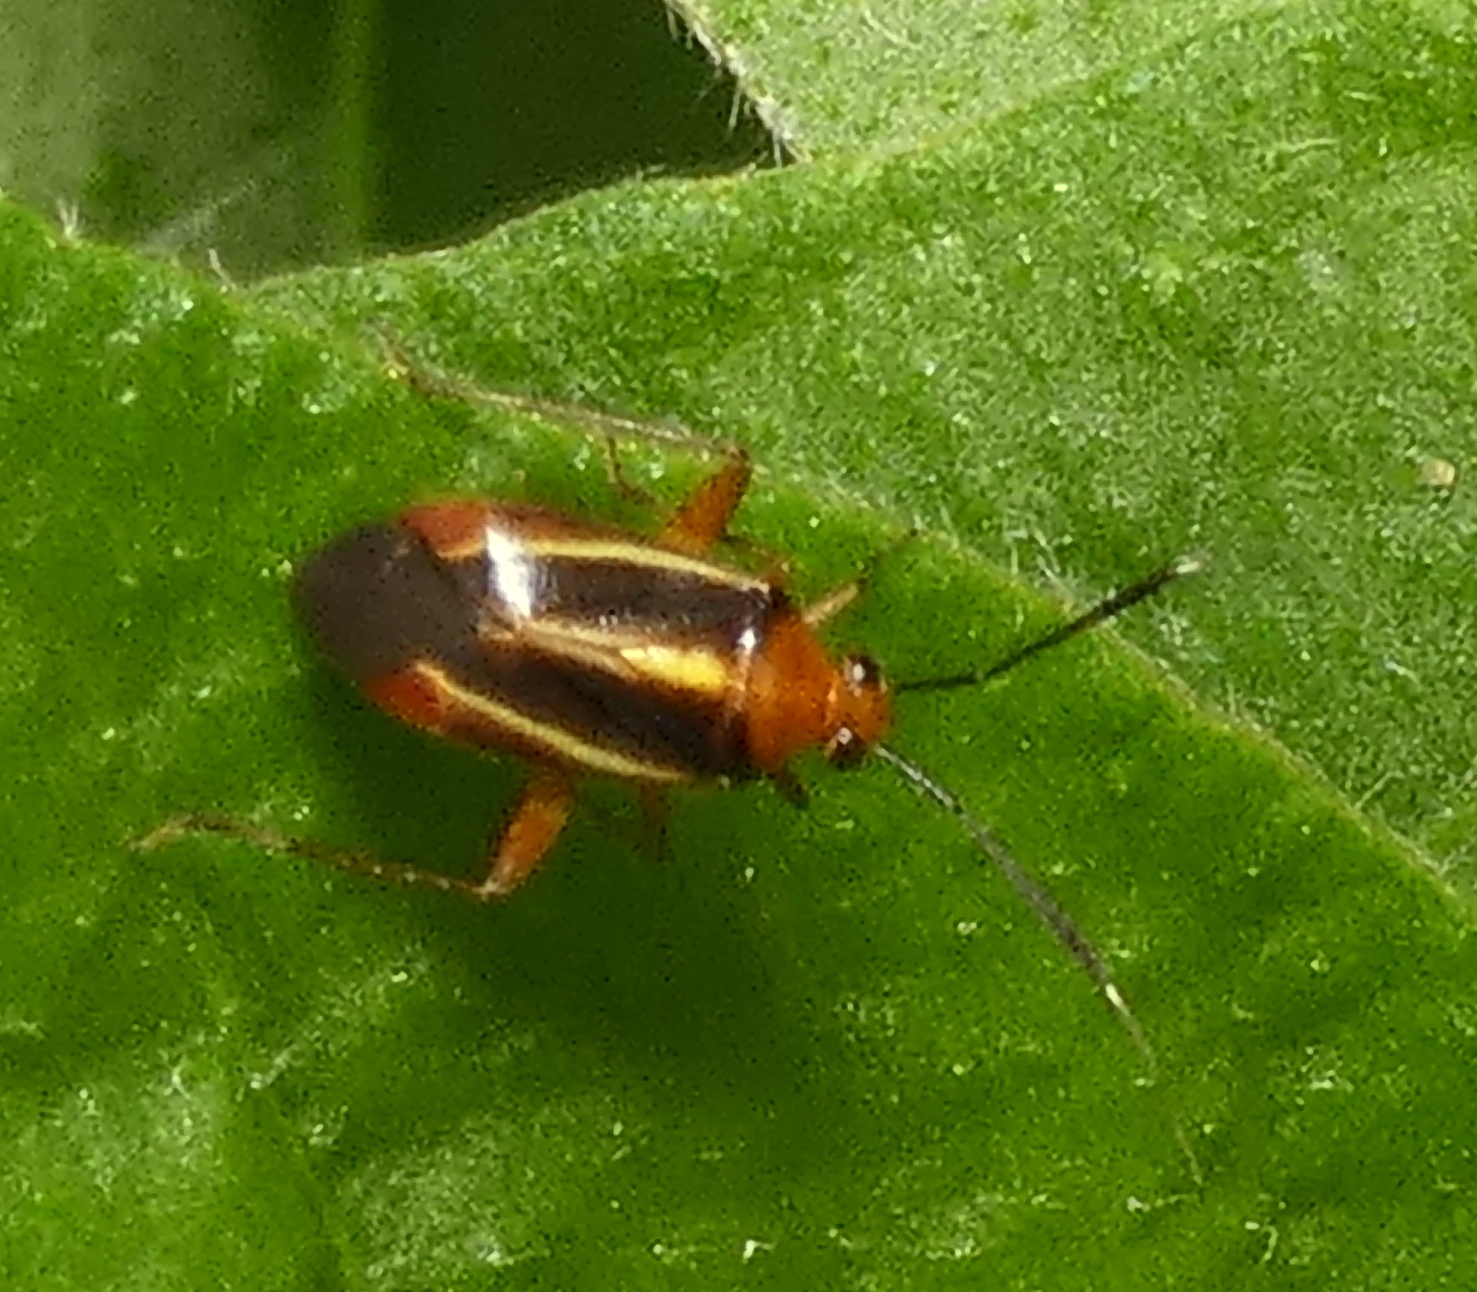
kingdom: Animalia
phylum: Arthropoda
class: Insecta
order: Hemiptera
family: Miridae
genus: Horciasinus
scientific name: Horciasinus signoreti
